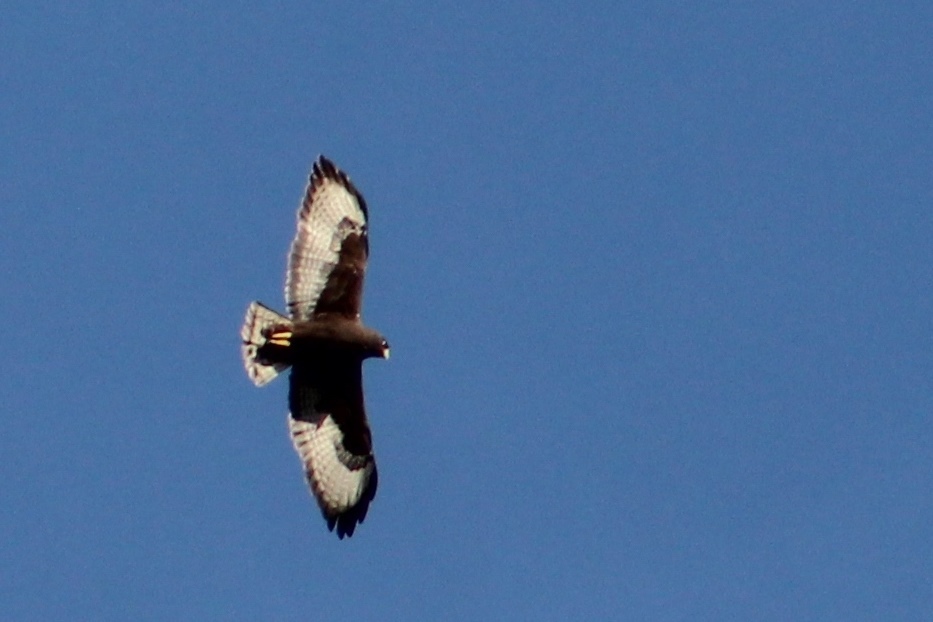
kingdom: Animalia
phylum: Chordata
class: Aves
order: Accipitriformes
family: Accipitridae
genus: Buteo
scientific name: Buteo brachyurus
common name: Short-tailed hawk
